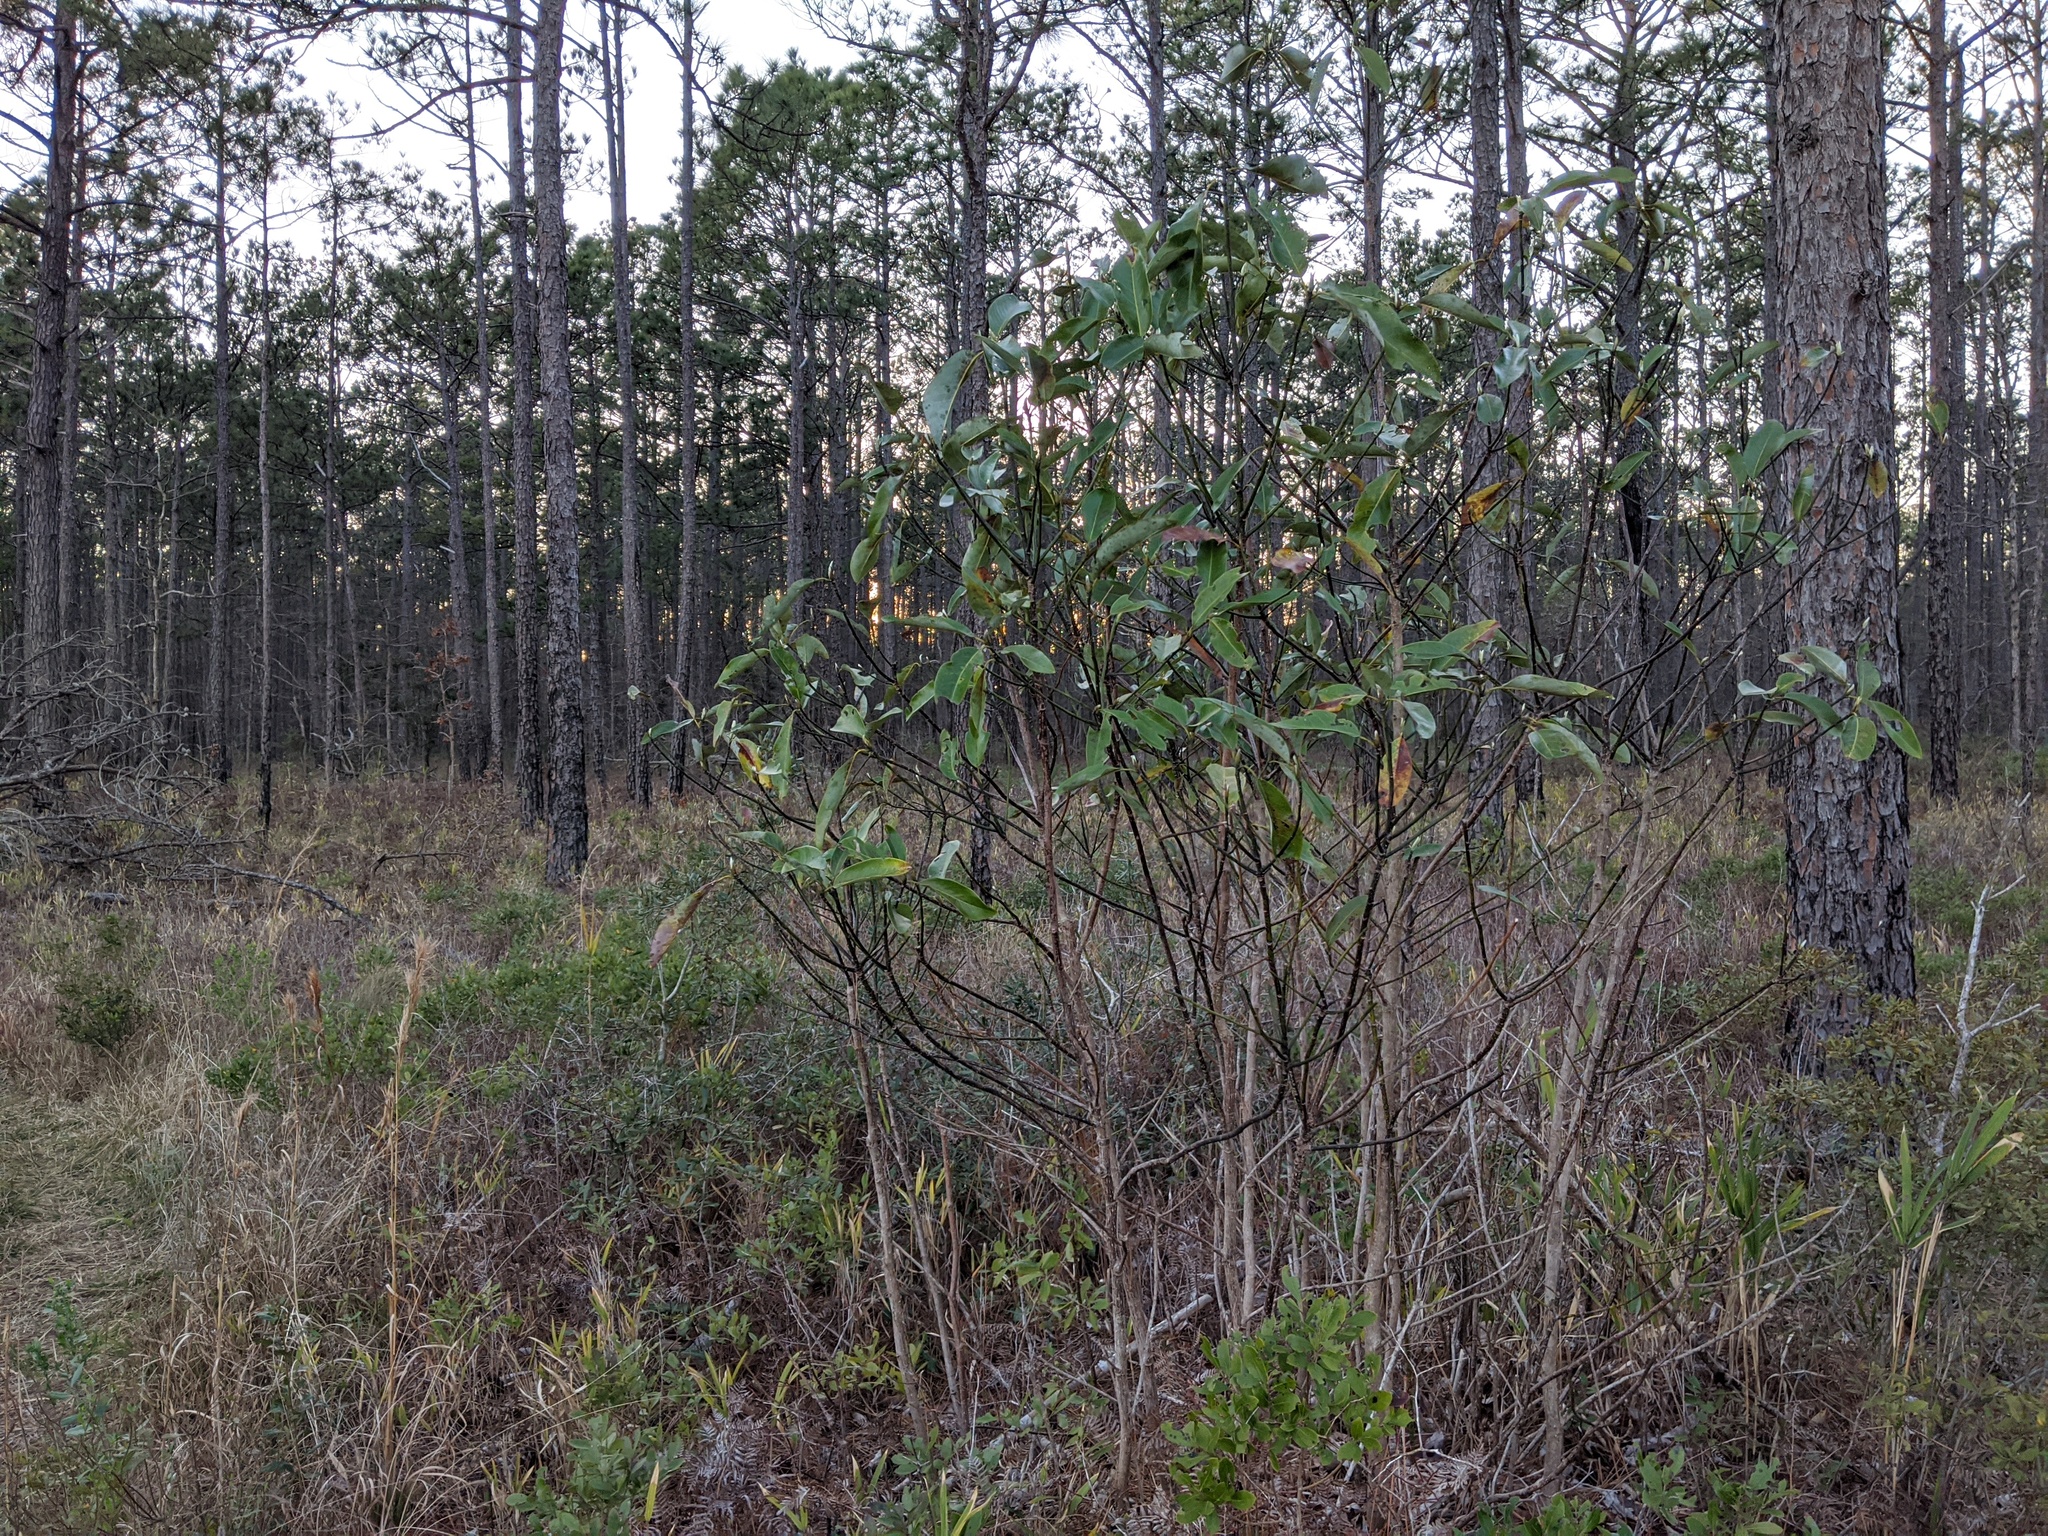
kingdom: Plantae
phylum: Tracheophyta
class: Magnoliopsida
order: Magnoliales
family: Magnoliaceae
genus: Magnolia
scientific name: Magnolia virginiana
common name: Swamp bay
